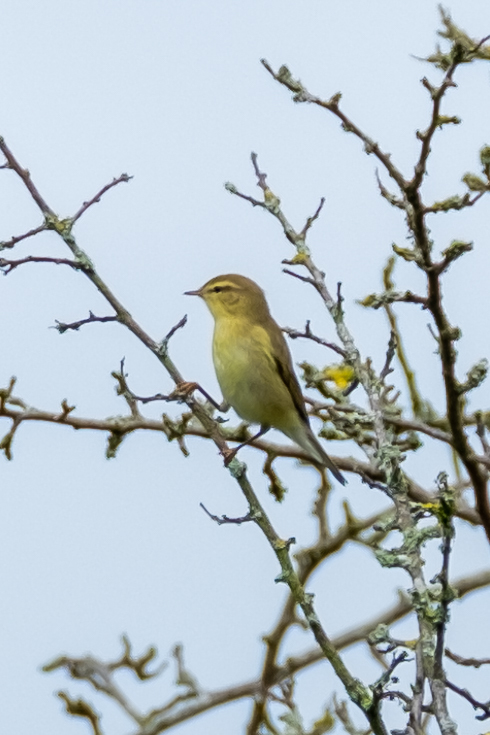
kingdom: Animalia
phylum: Chordata
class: Aves
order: Passeriformes
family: Phylloscopidae
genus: Phylloscopus
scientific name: Phylloscopus trochilus
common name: Willow warbler
